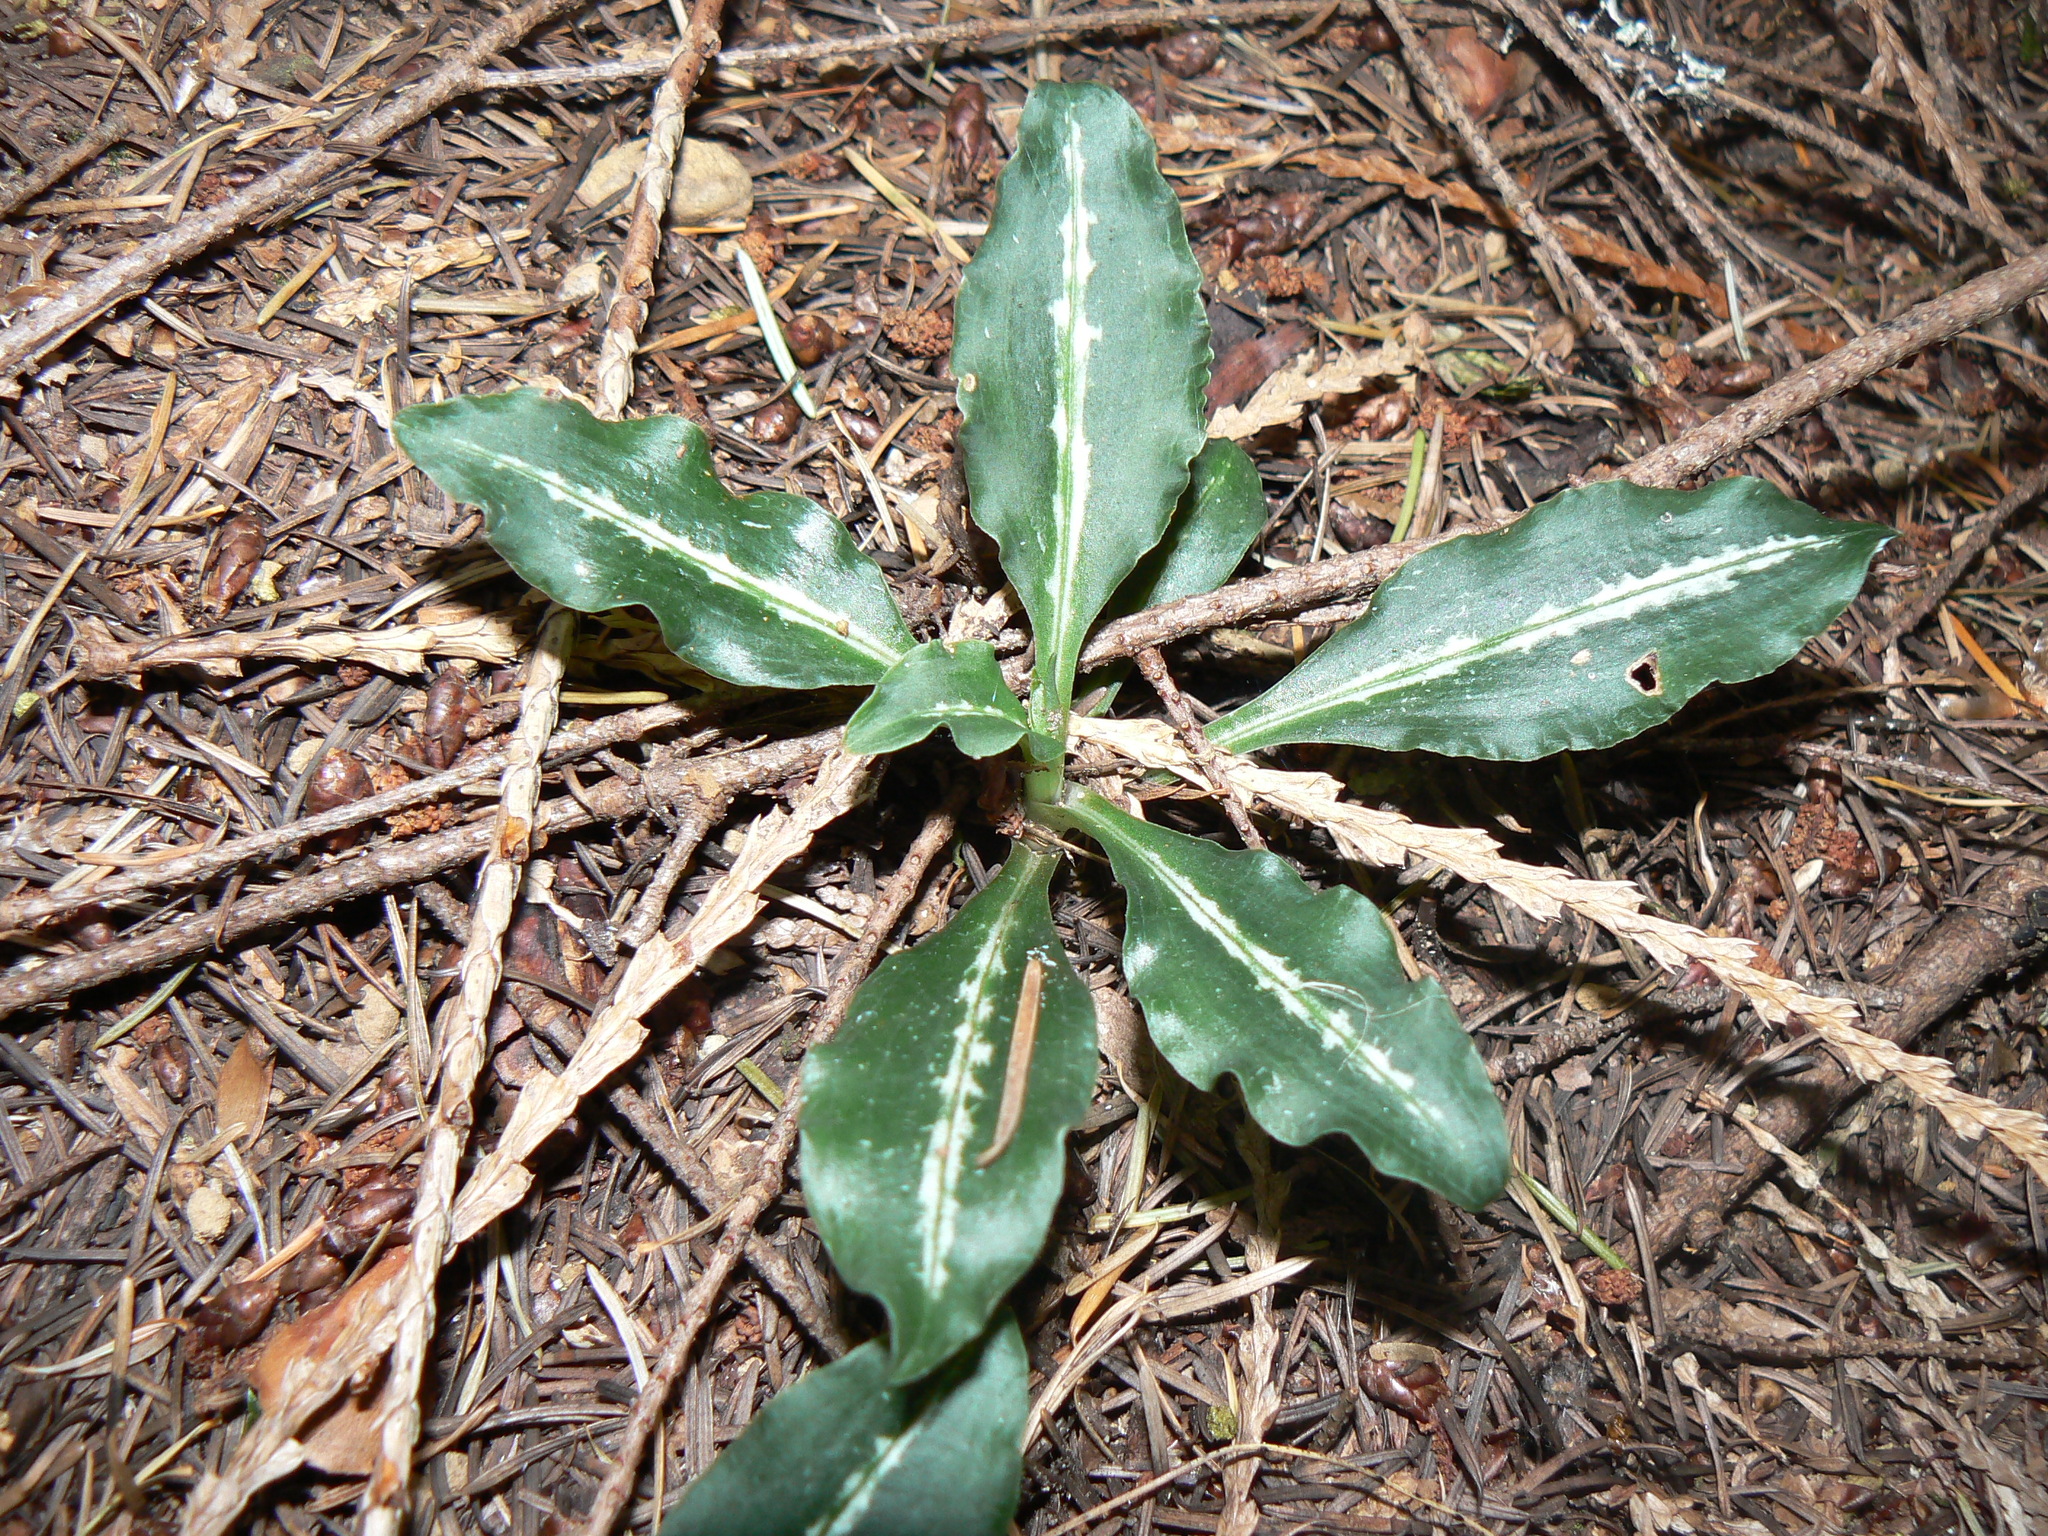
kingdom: Plantae
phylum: Tracheophyta
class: Liliopsida
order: Asparagales
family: Orchidaceae
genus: Goodyera
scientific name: Goodyera oblongifolia
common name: Giant rattlesnake-plantain
